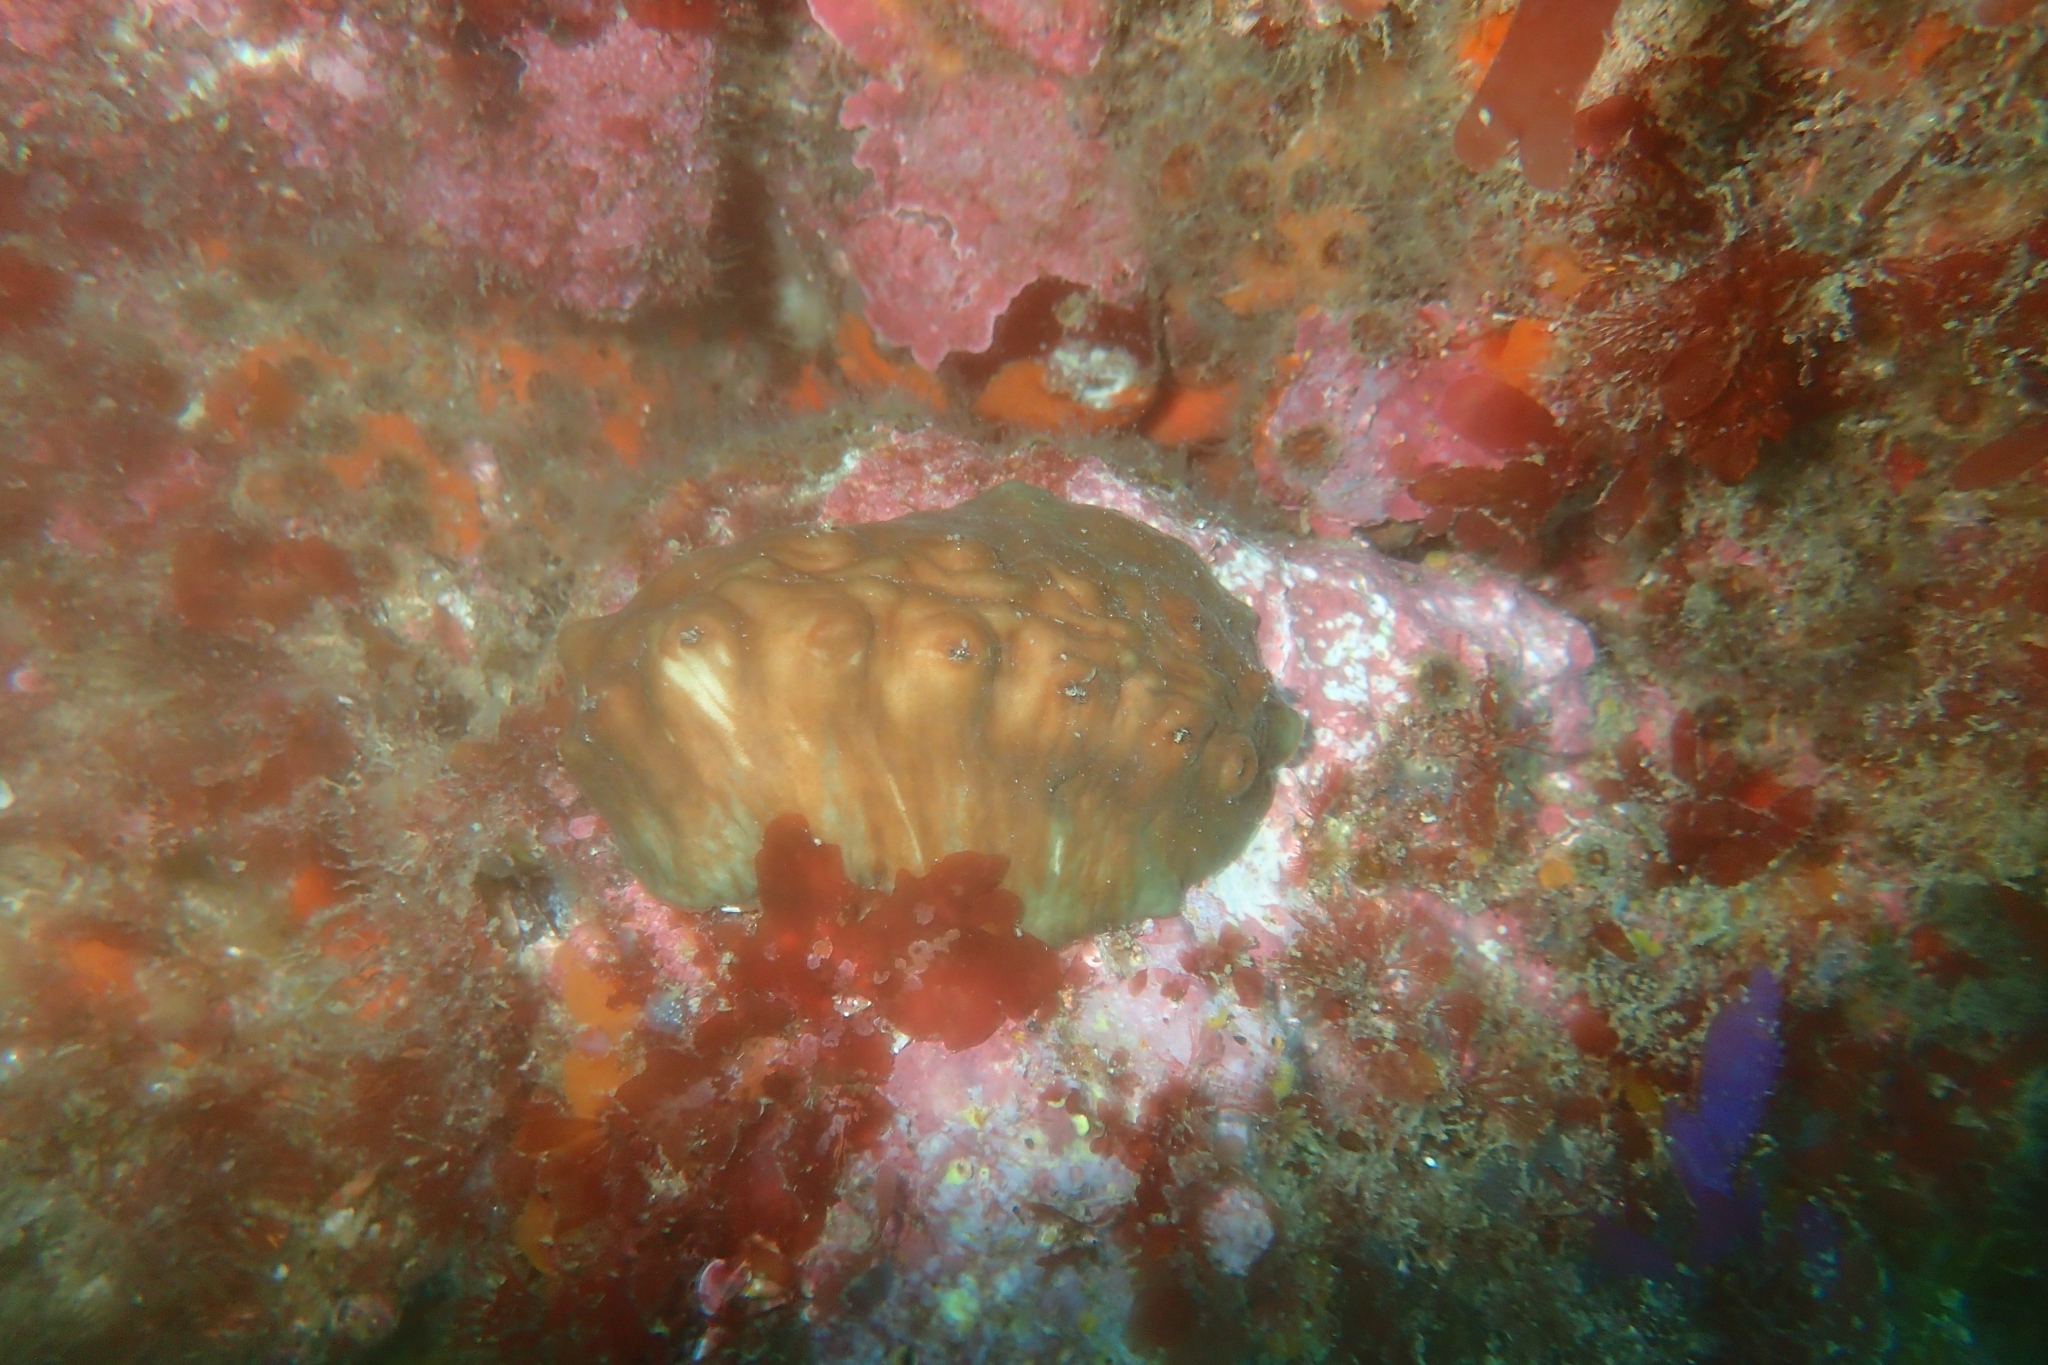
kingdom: Animalia
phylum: Mollusca
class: Polyplacophora
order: Chitonida
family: Acanthochitonidae
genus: Cryptoconchus
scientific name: Cryptoconchus porosus
